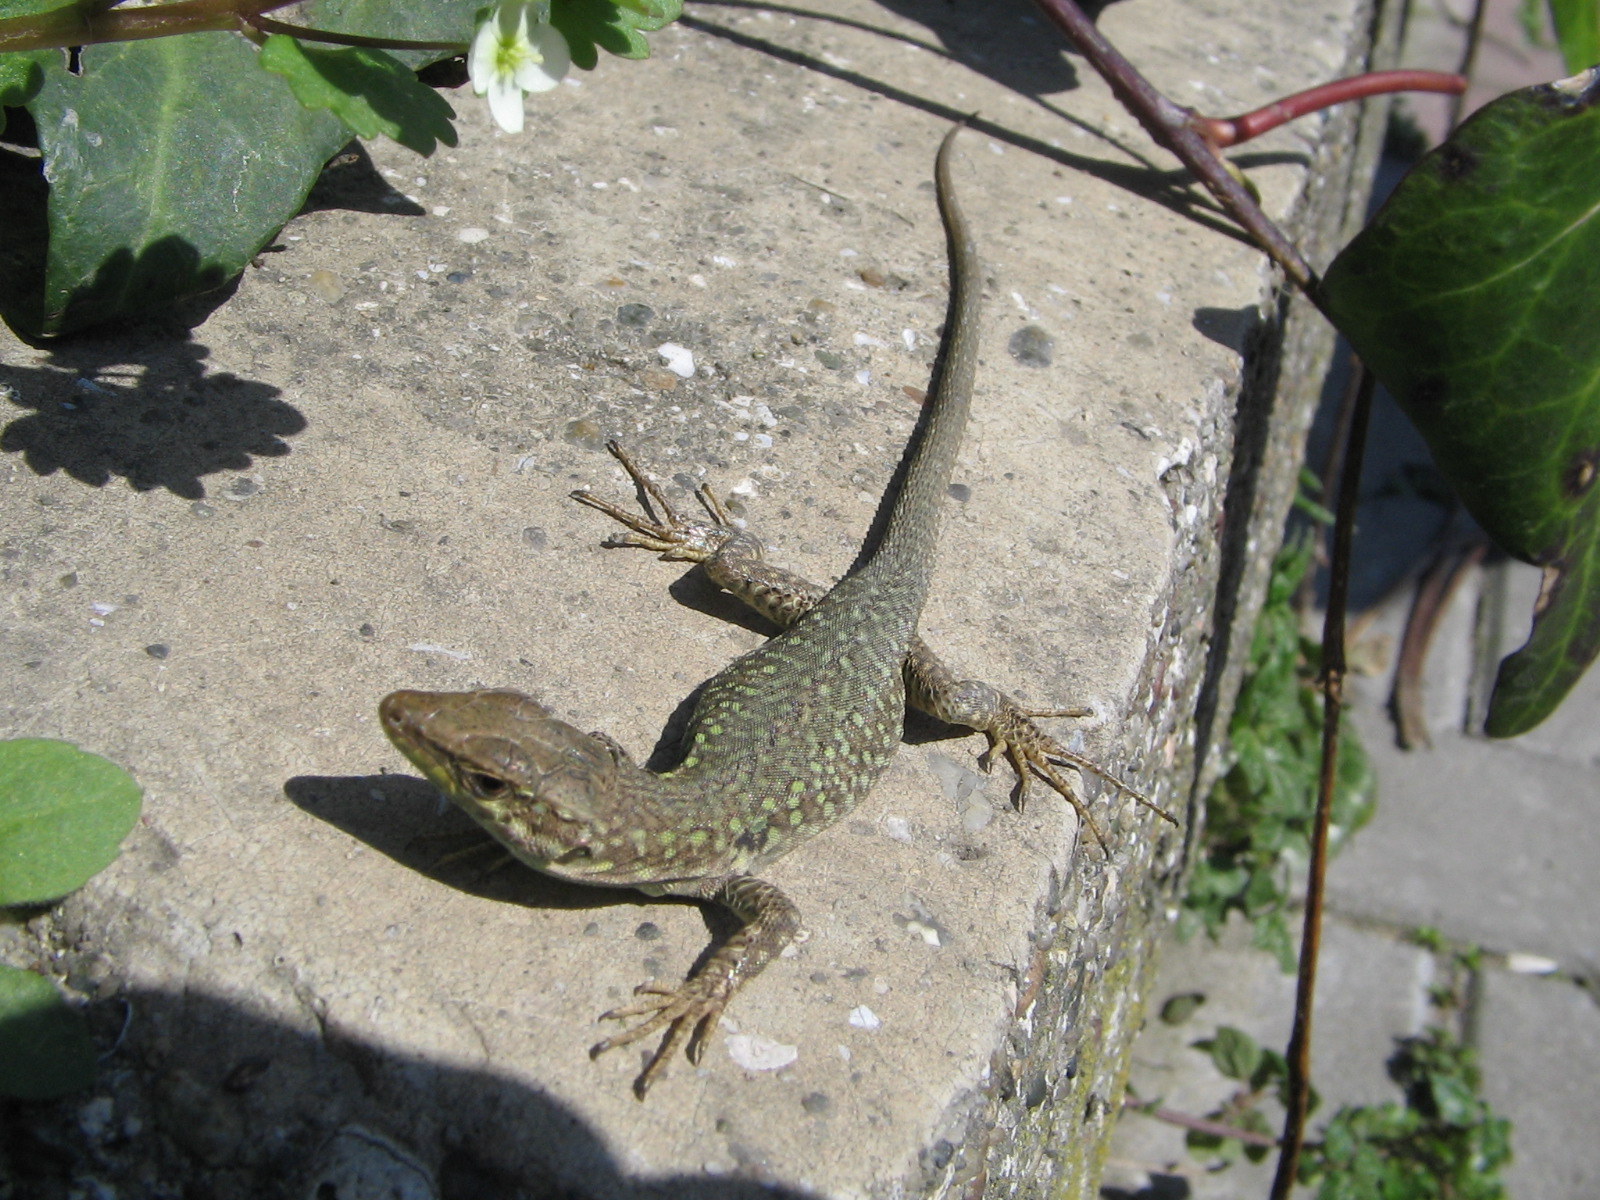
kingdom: Animalia
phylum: Chordata
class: Squamata
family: Lacertidae
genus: Podarcis
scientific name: Podarcis siculus
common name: Italian wall lizard
